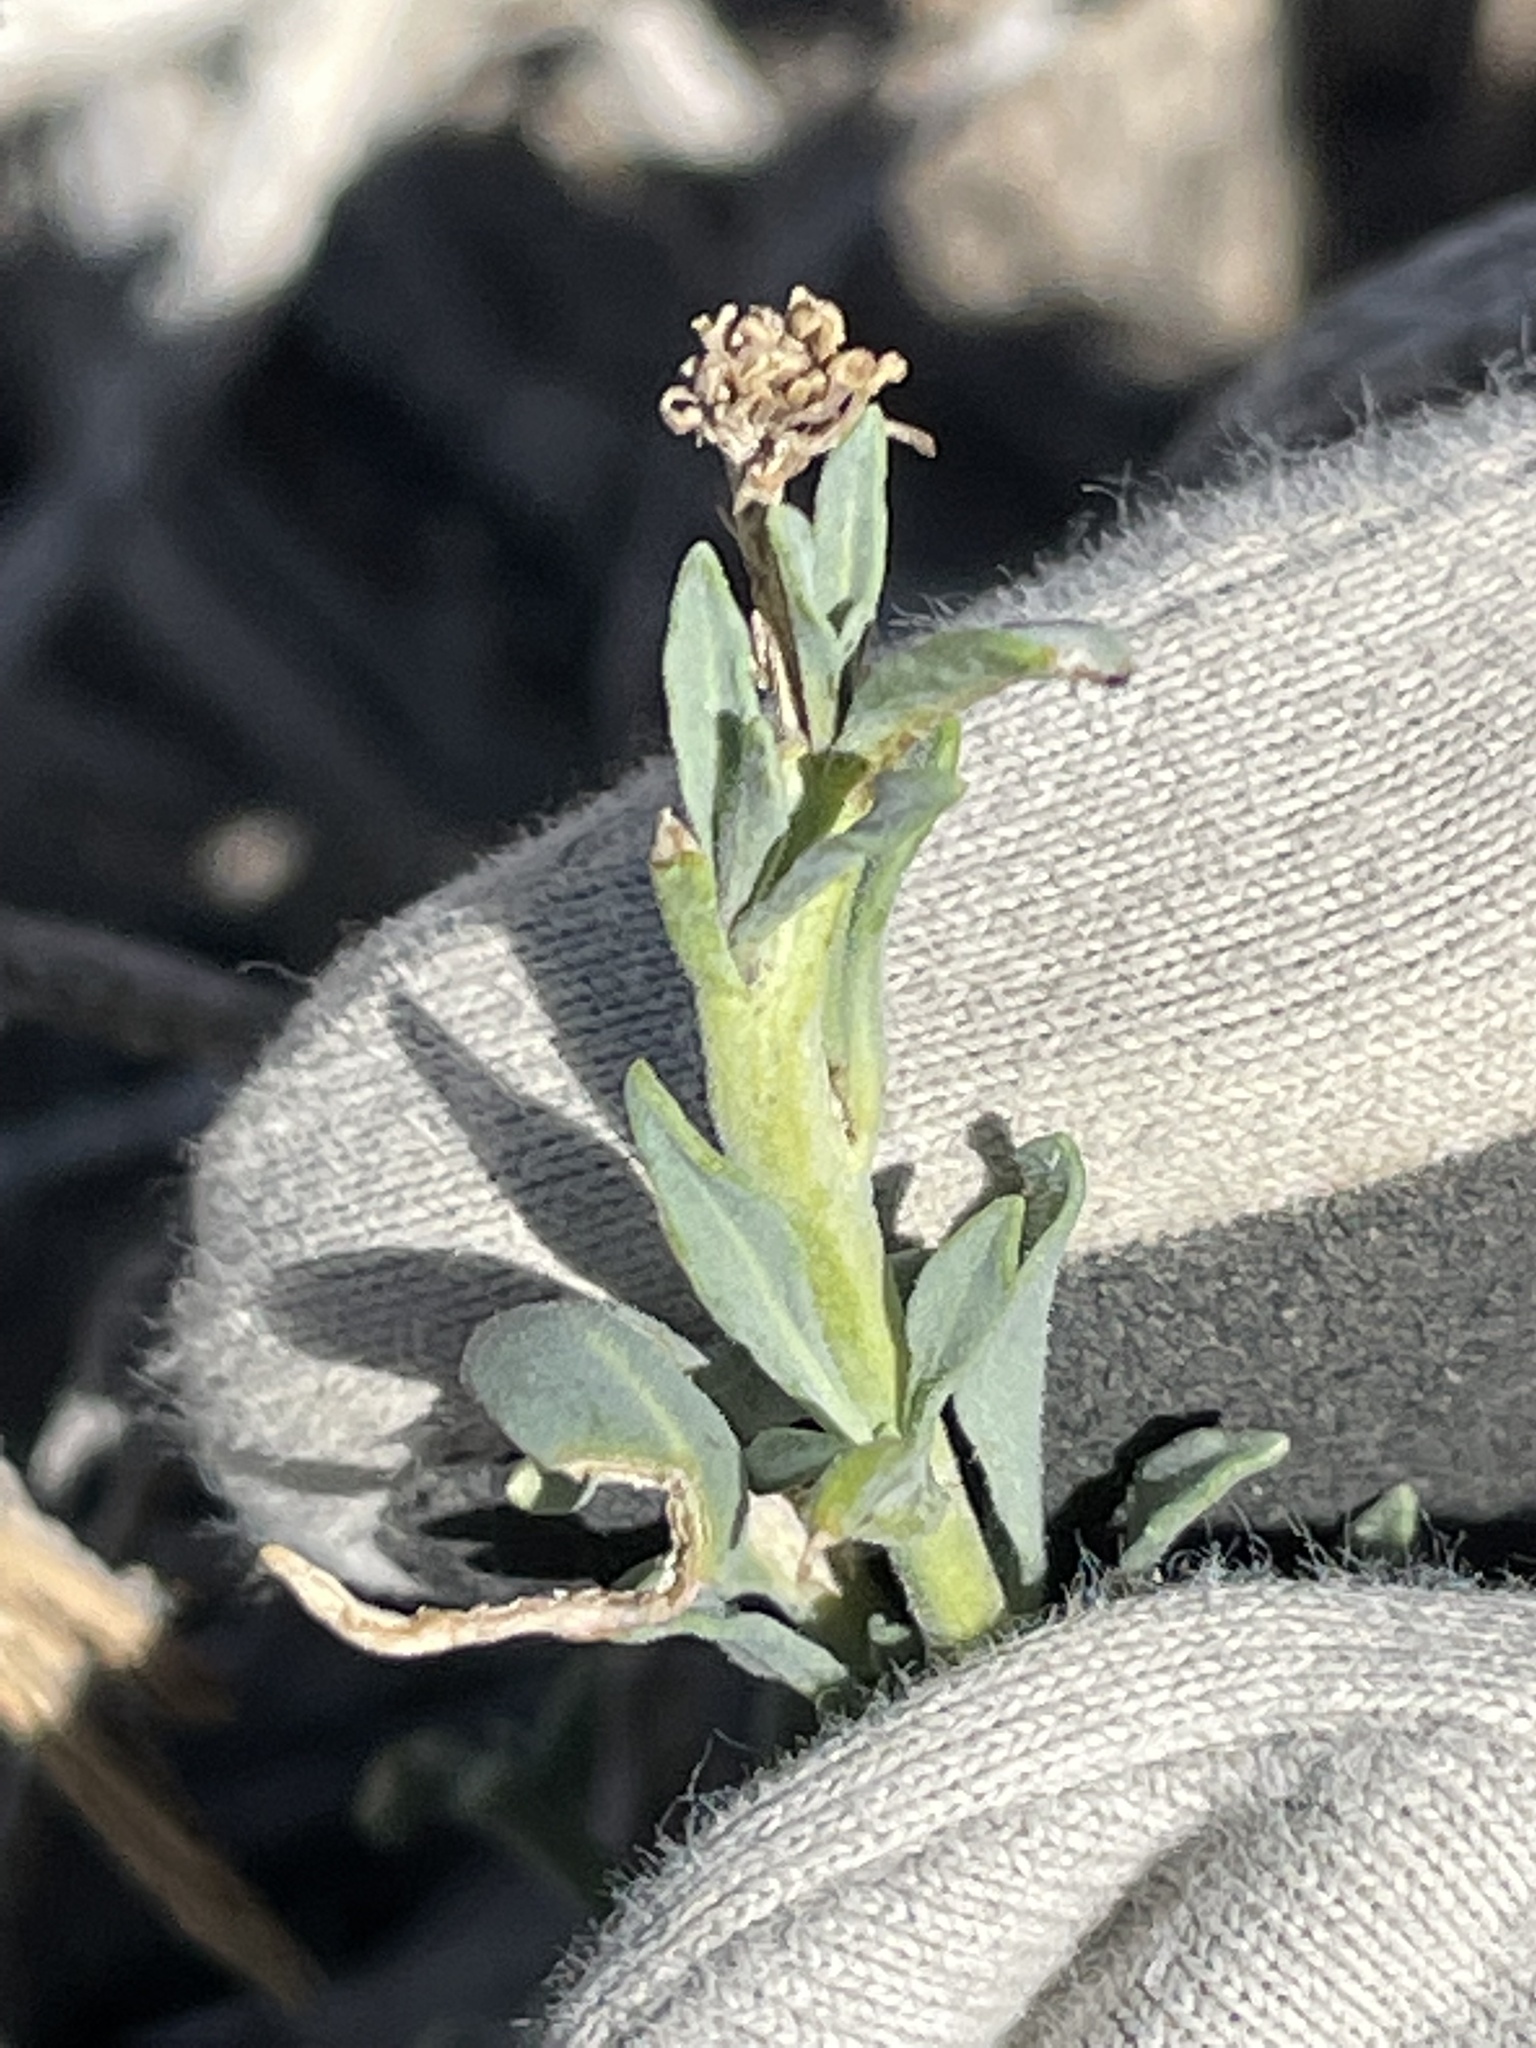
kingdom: Plantae
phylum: Tracheophyta
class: Magnoliopsida
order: Brassicales
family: Brassicaceae
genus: Stanleya
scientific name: Stanleya pinnata
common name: Prince's-plume
